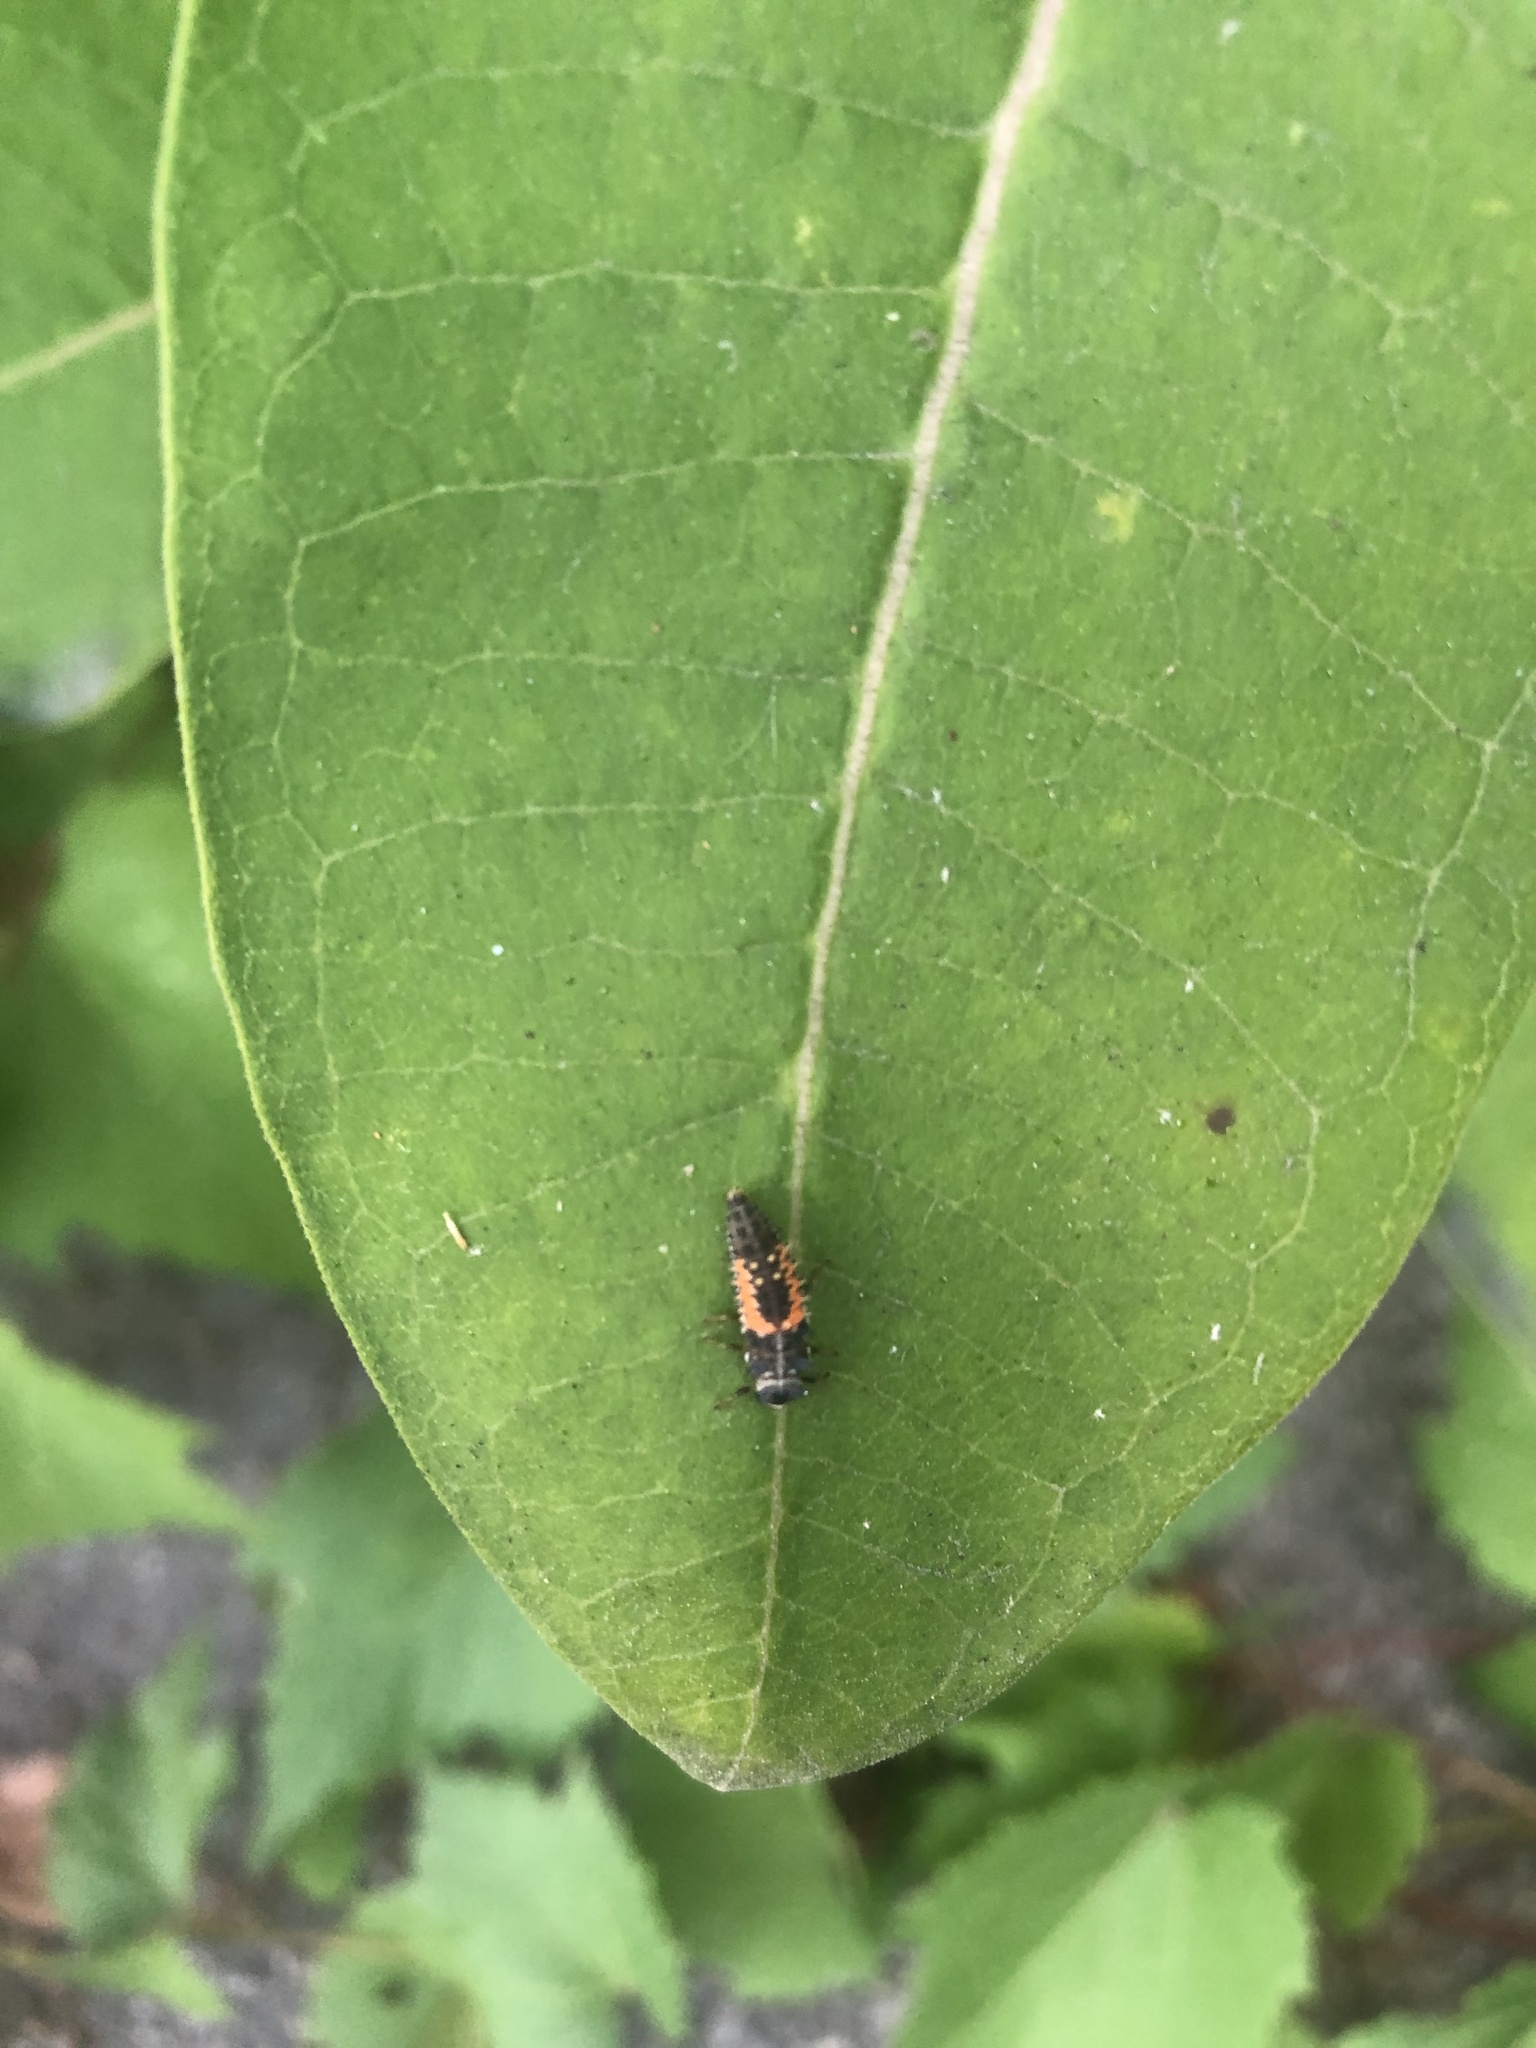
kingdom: Animalia
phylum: Arthropoda
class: Insecta
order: Coleoptera
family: Coccinellidae
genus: Harmonia
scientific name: Harmonia axyridis
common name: Harlequin ladybird
